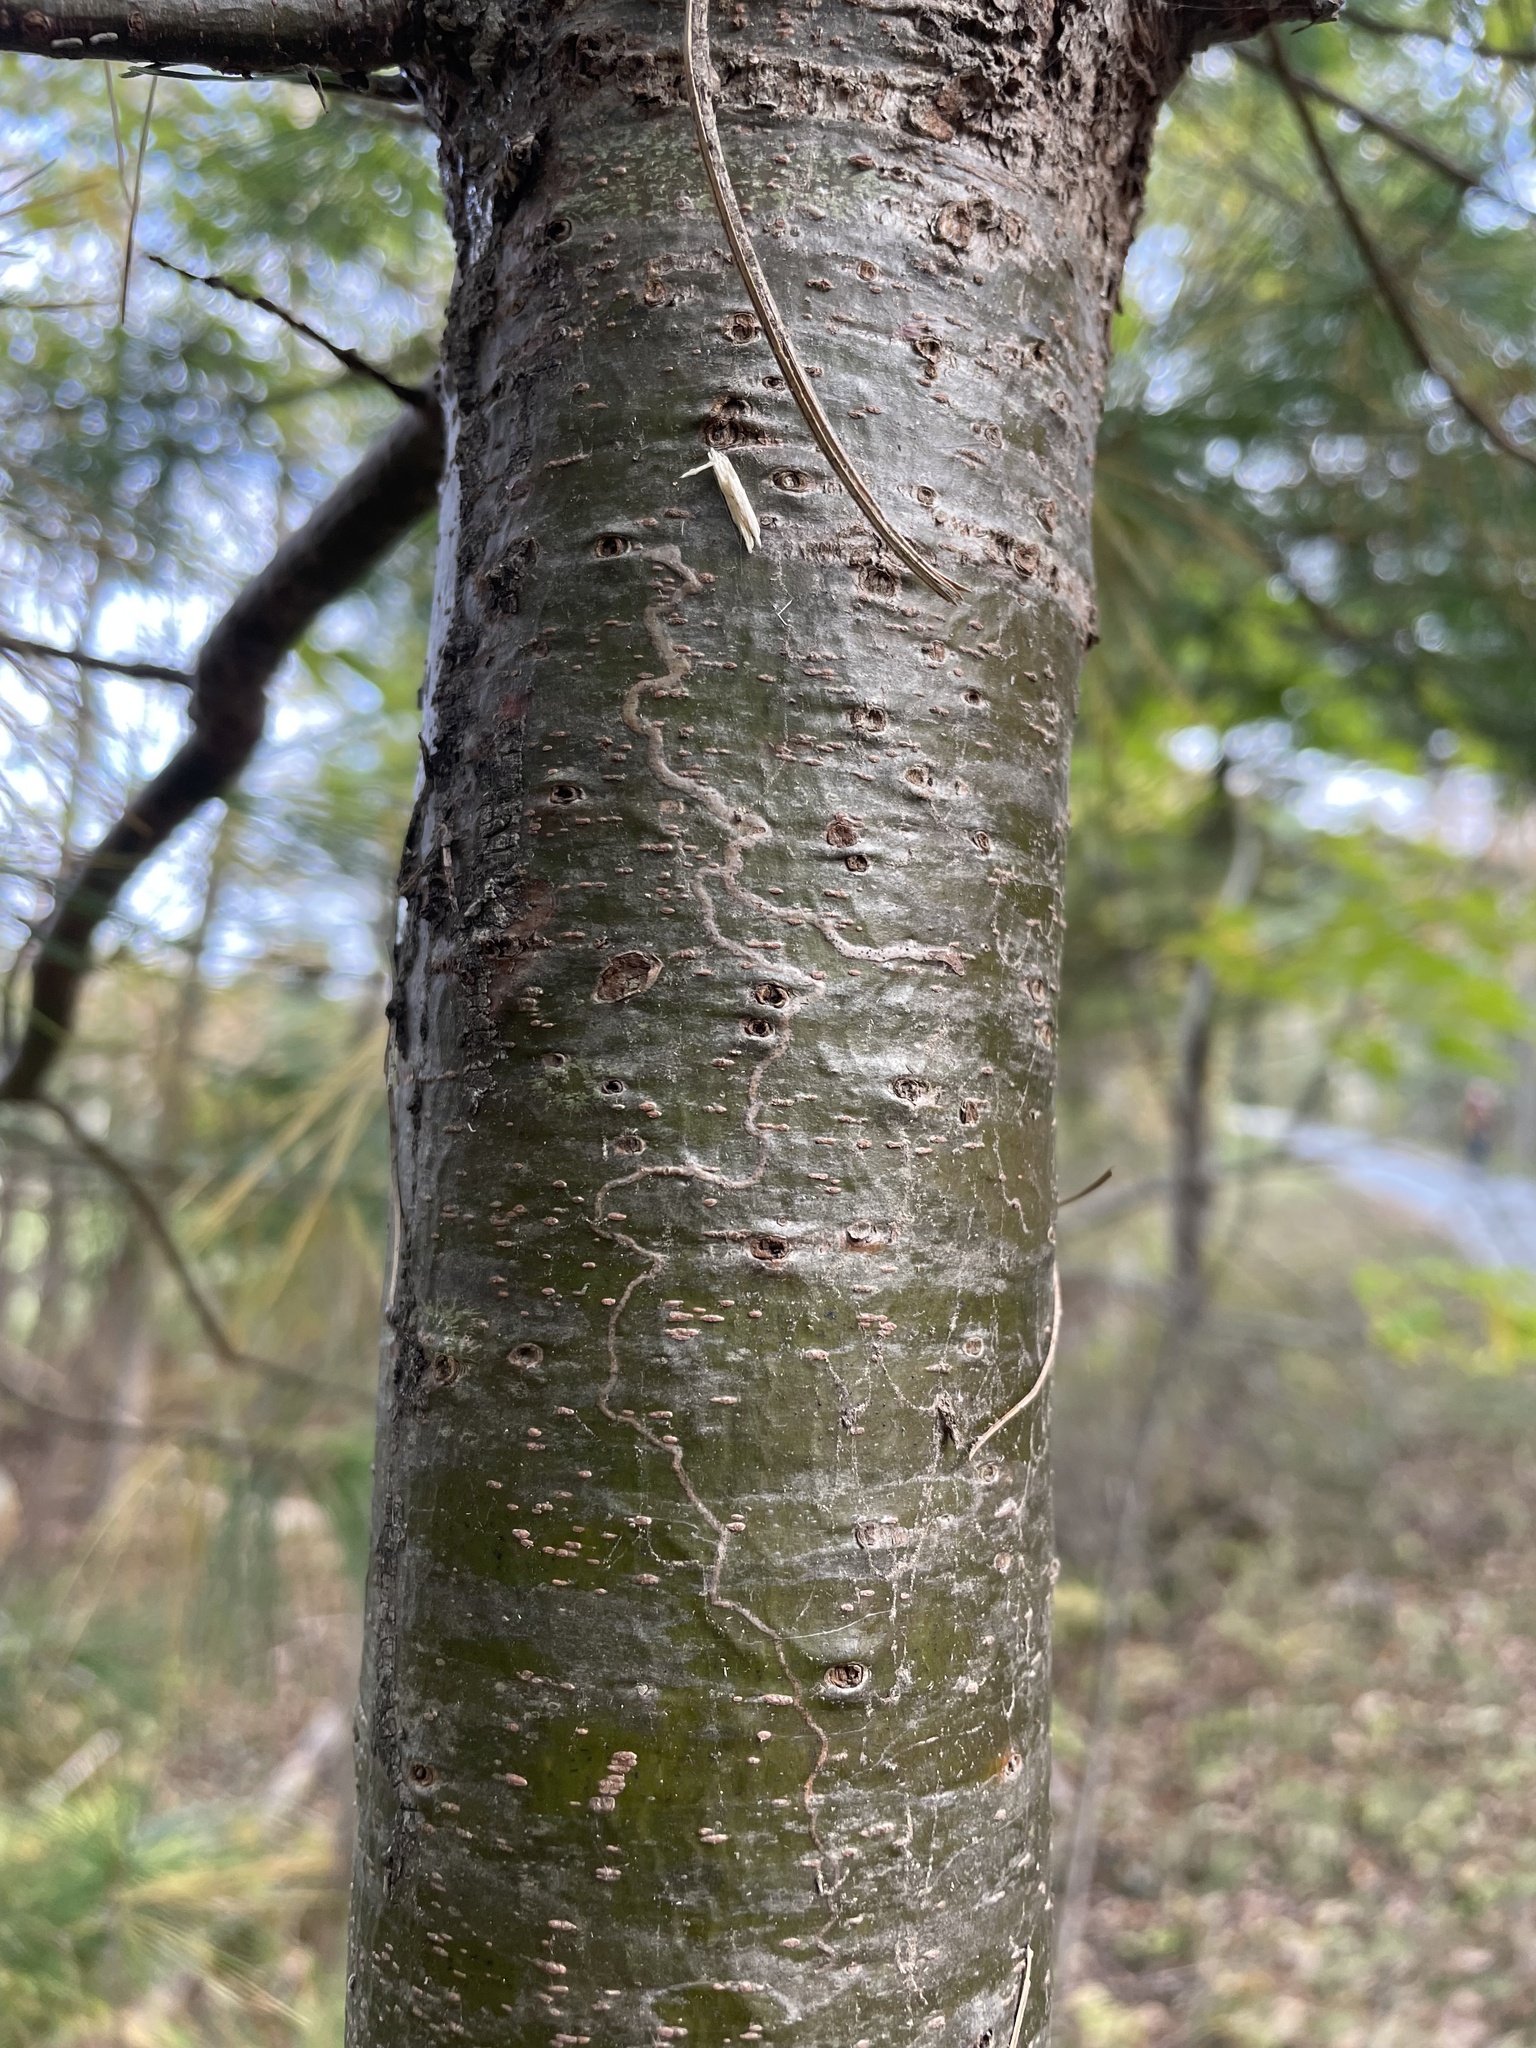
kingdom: Animalia
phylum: Arthropoda
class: Insecta
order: Lepidoptera
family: Gracillariidae
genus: Marmara
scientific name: Marmara fasciella
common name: White pine barkminer moth
